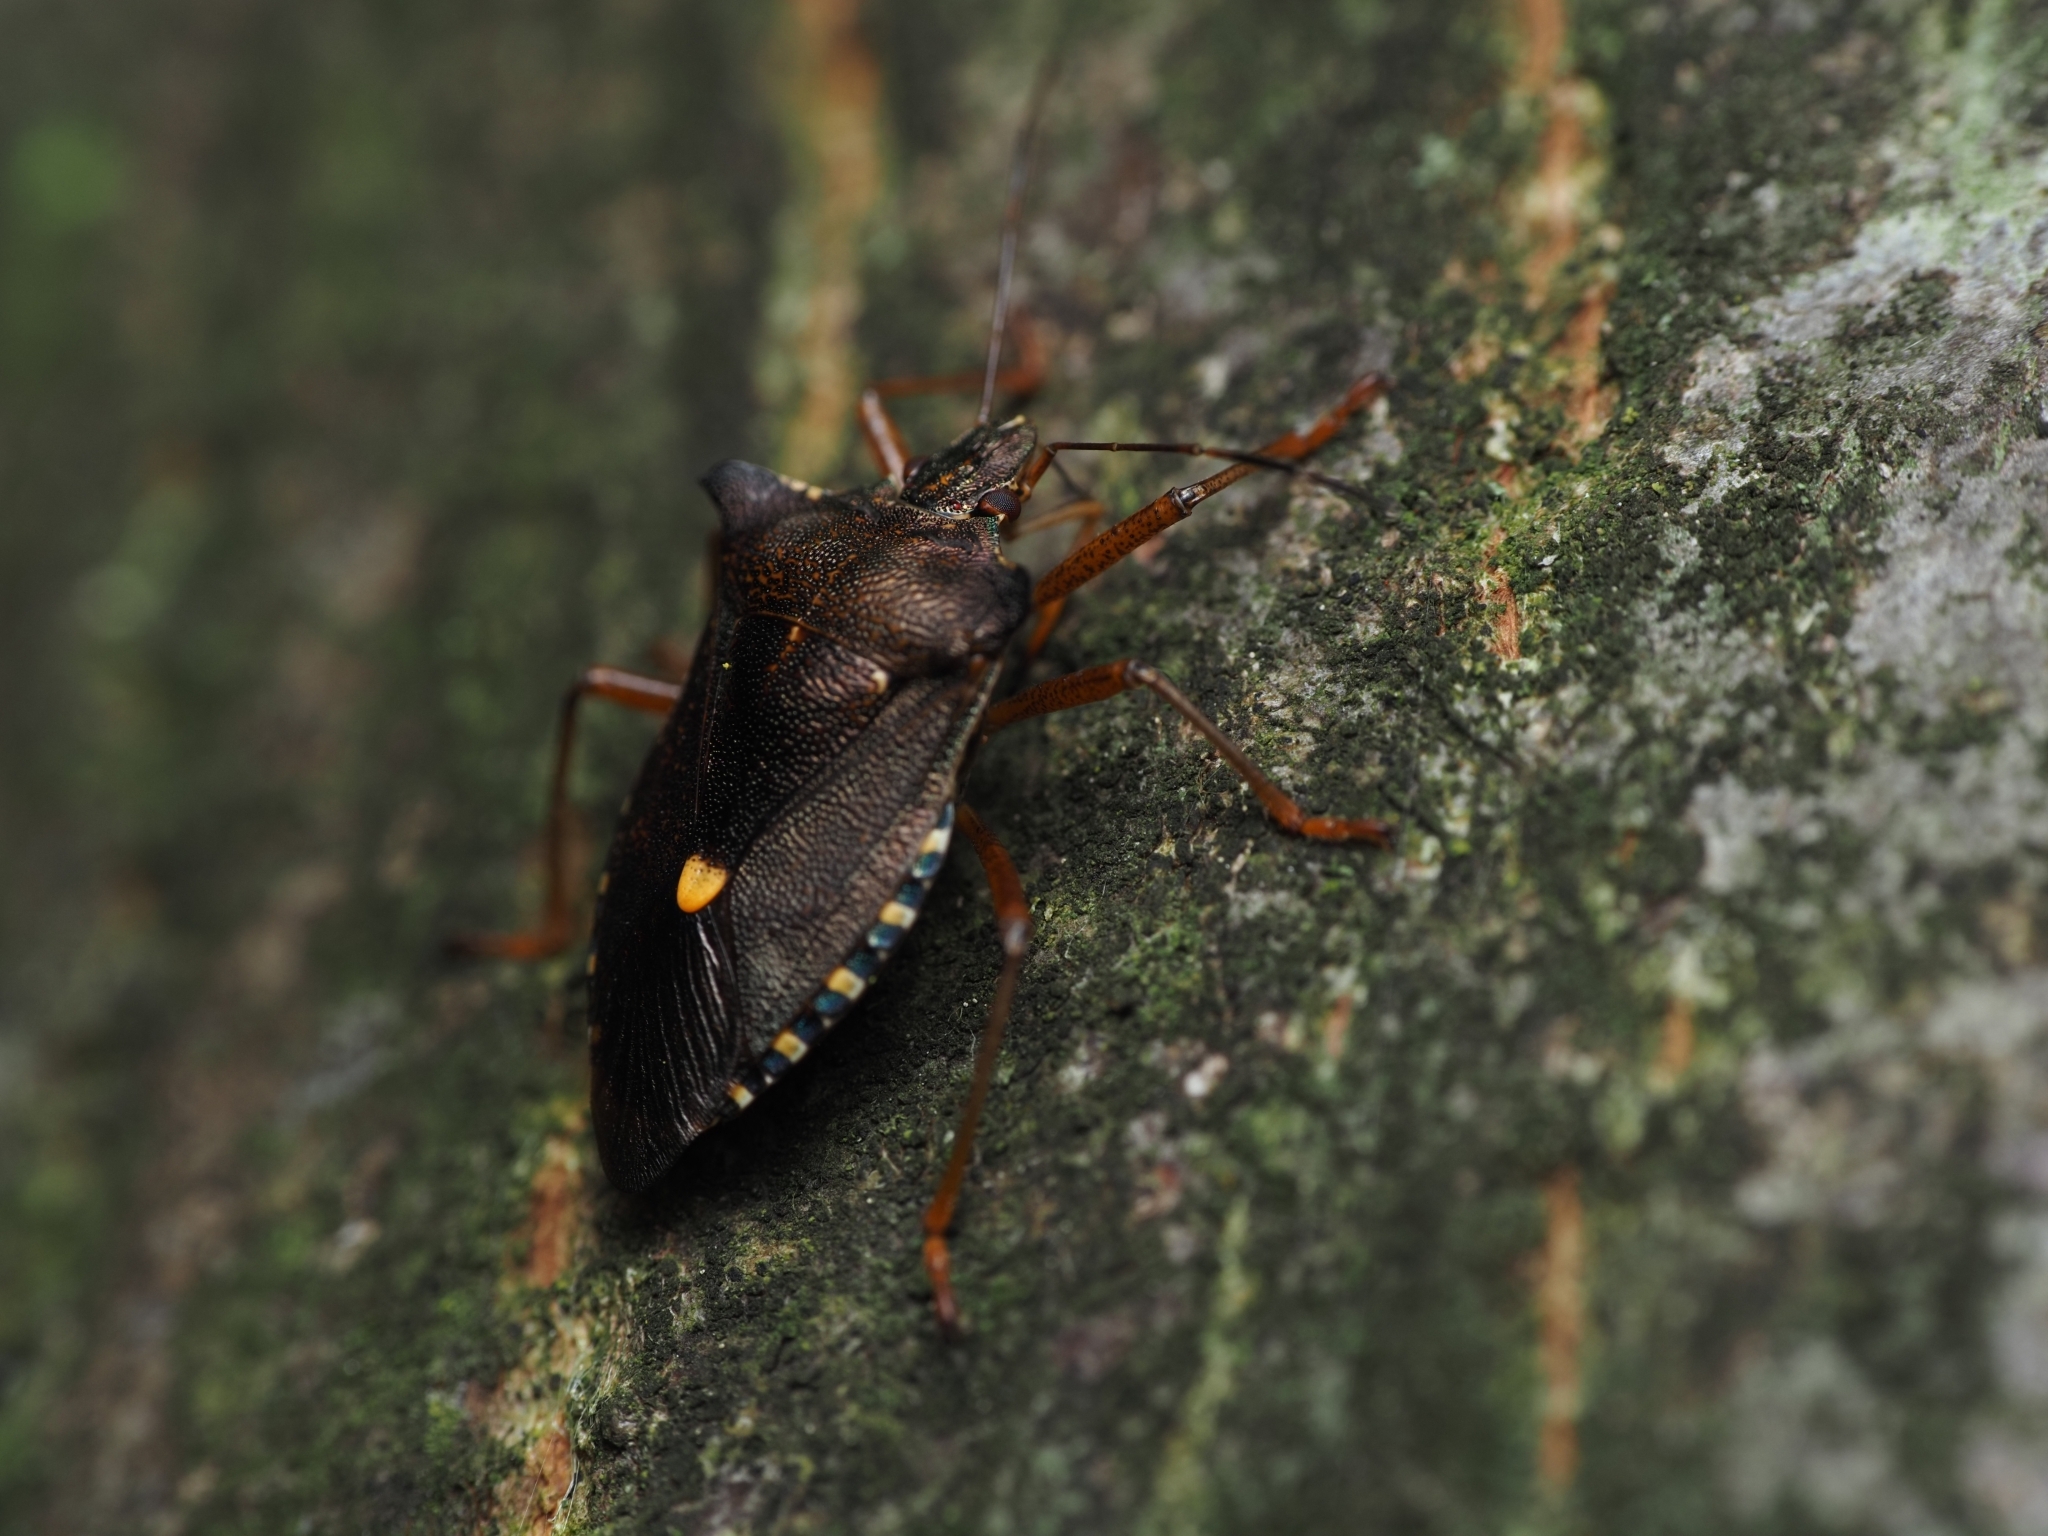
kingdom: Animalia
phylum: Arthropoda
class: Insecta
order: Hemiptera
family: Pentatomidae
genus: Pentatoma
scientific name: Pentatoma rufipes
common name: Forest bug
